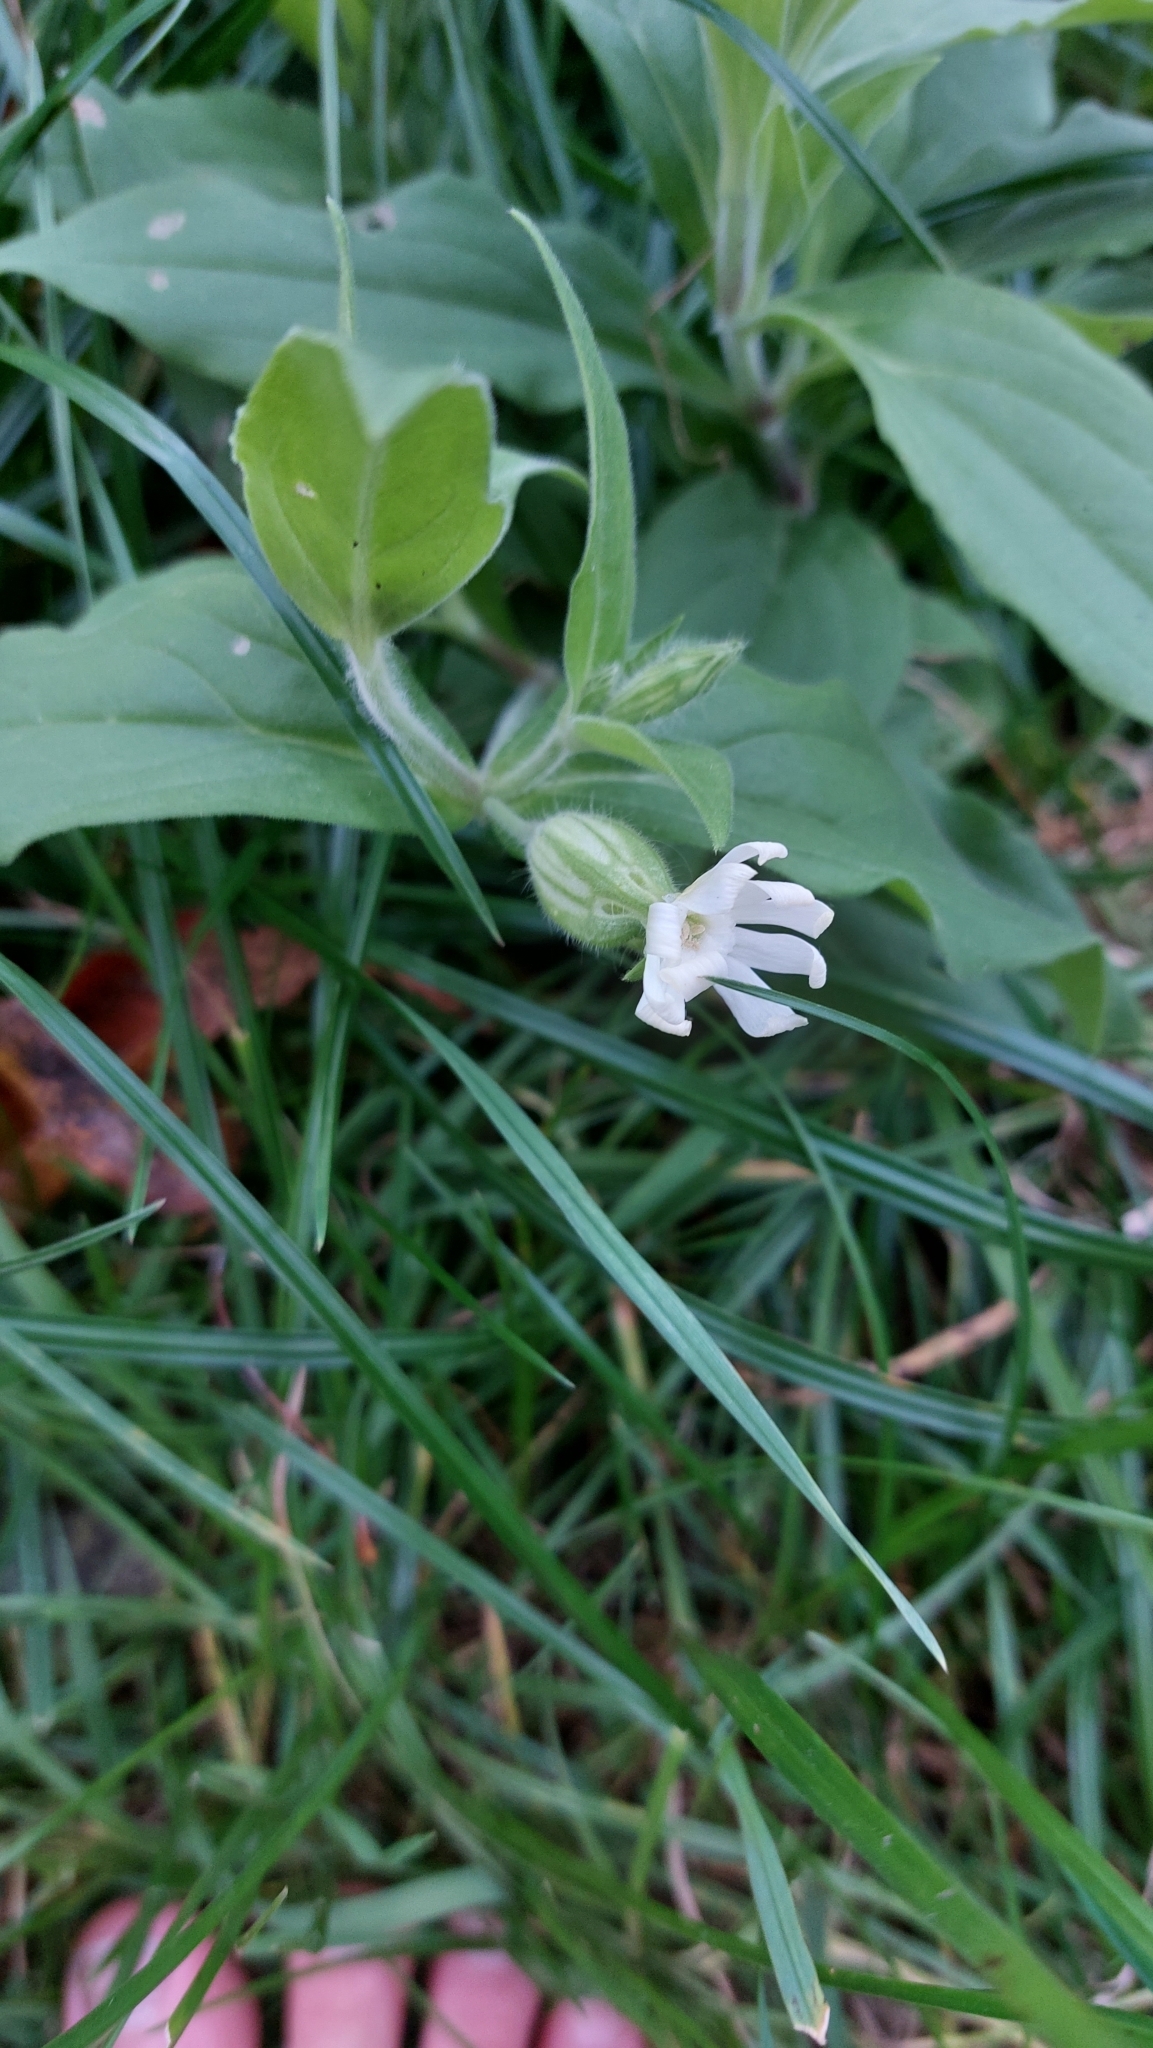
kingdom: Plantae
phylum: Tracheophyta
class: Magnoliopsida
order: Caryophyllales
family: Caryophyllaceae
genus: Silene
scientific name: Silene latifolia
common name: White campion
